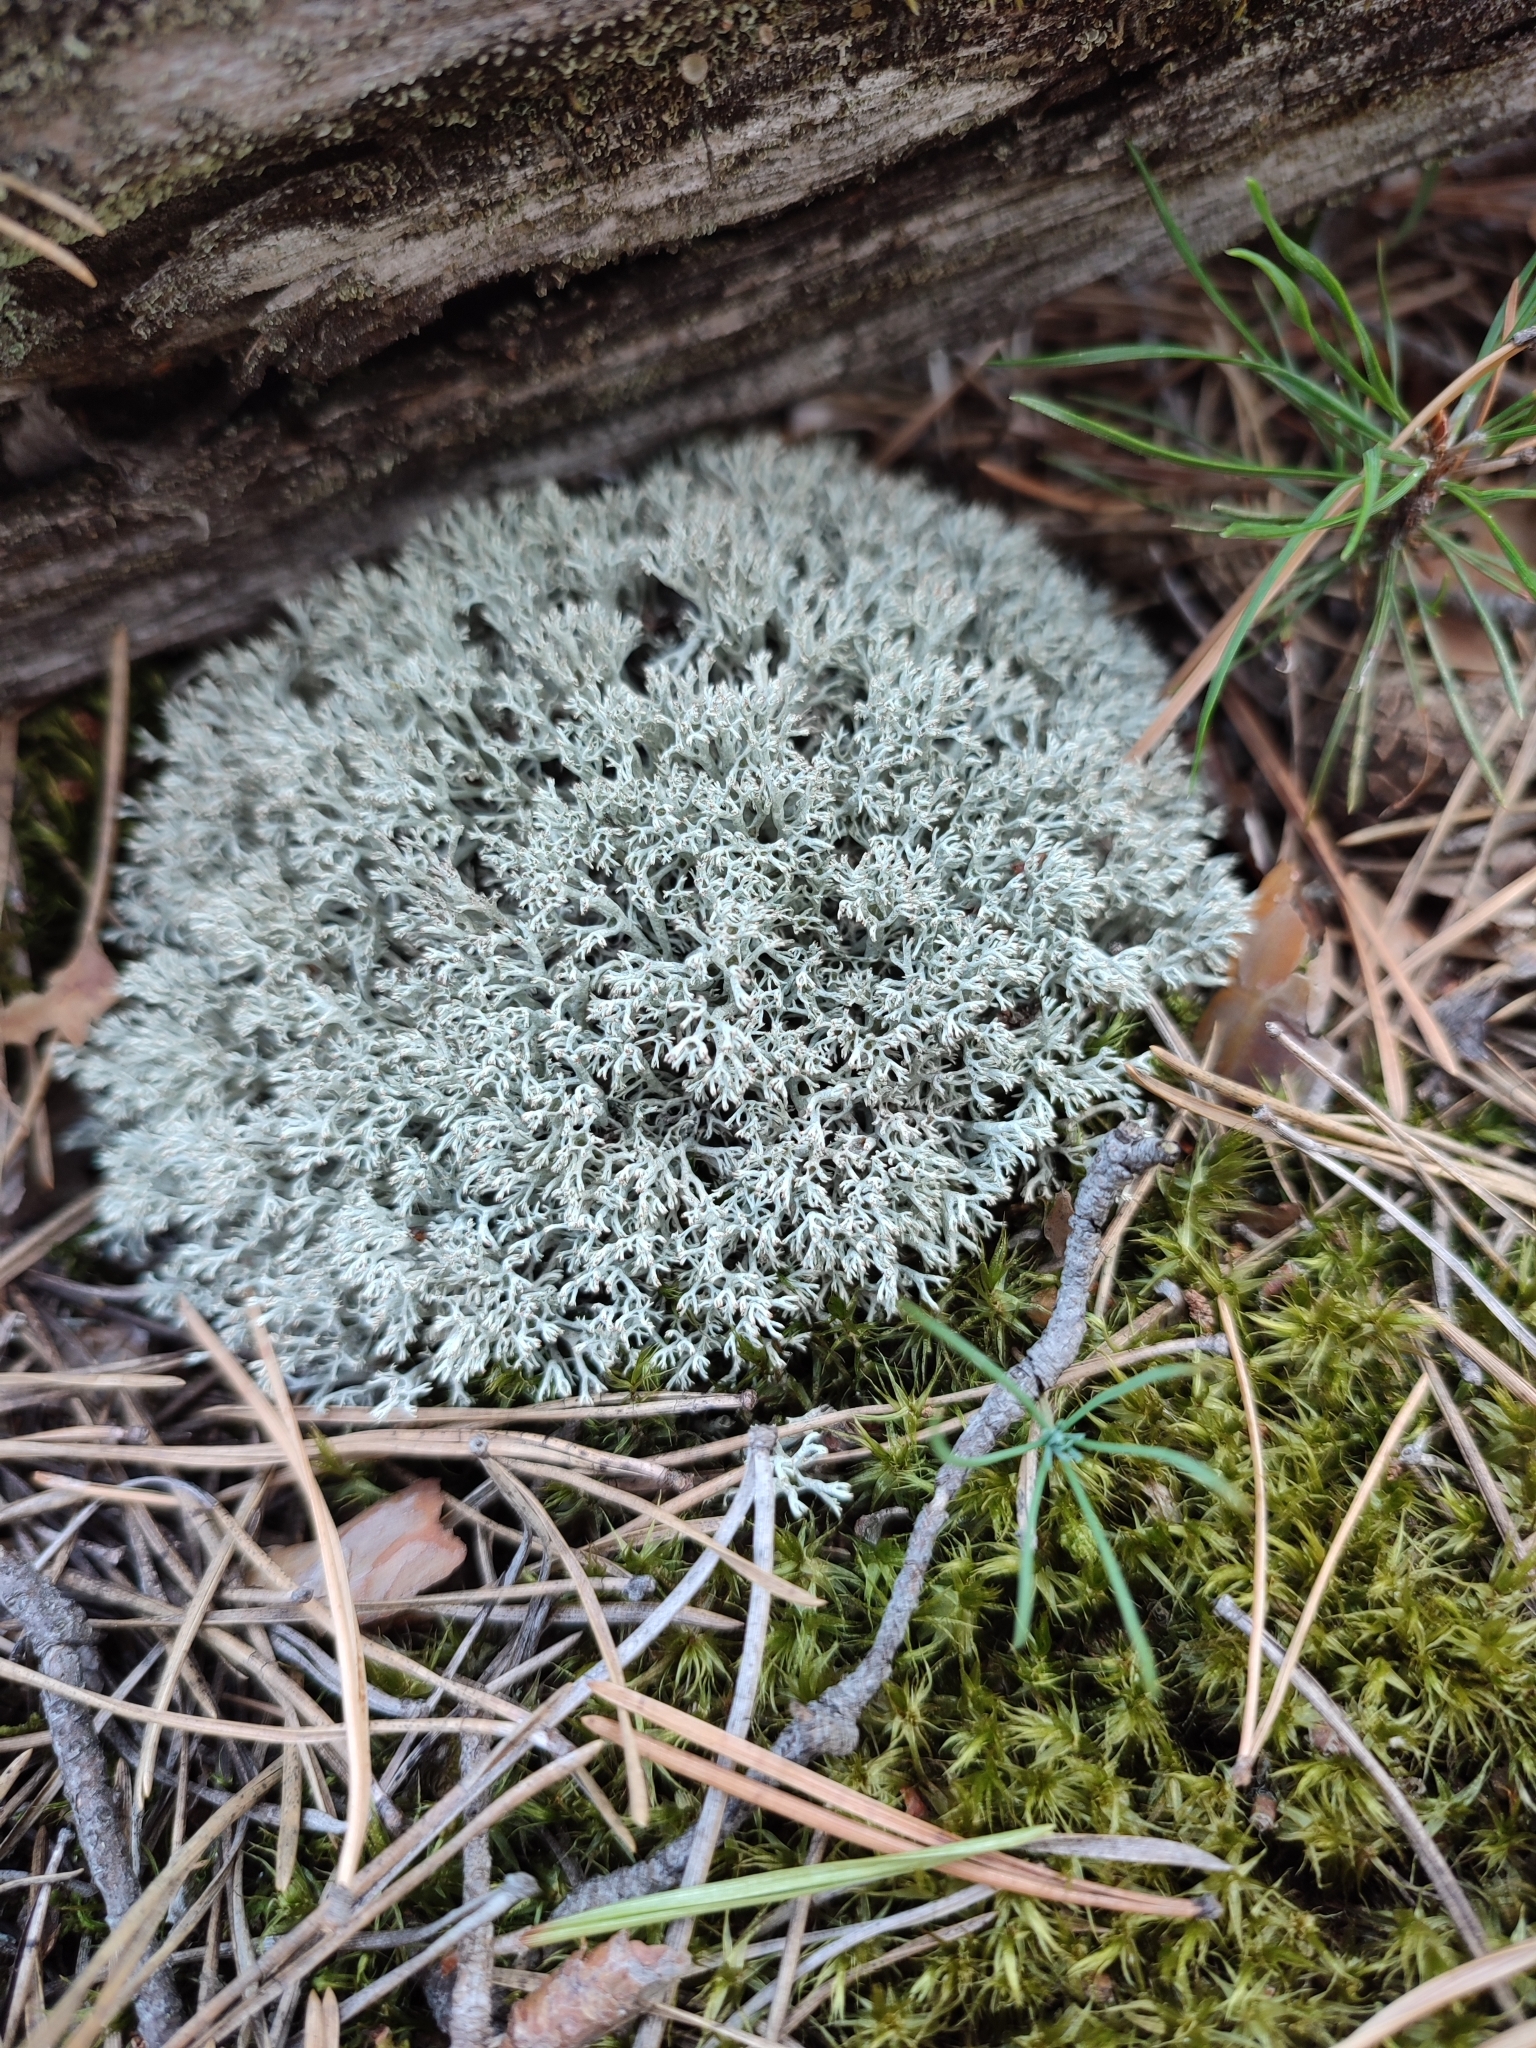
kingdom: Fungi
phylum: Ascomycota
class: Lecanoromycetes
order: Lecanorales
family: Cladoniaceae
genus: Cladonia
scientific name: Cladonia mitis
